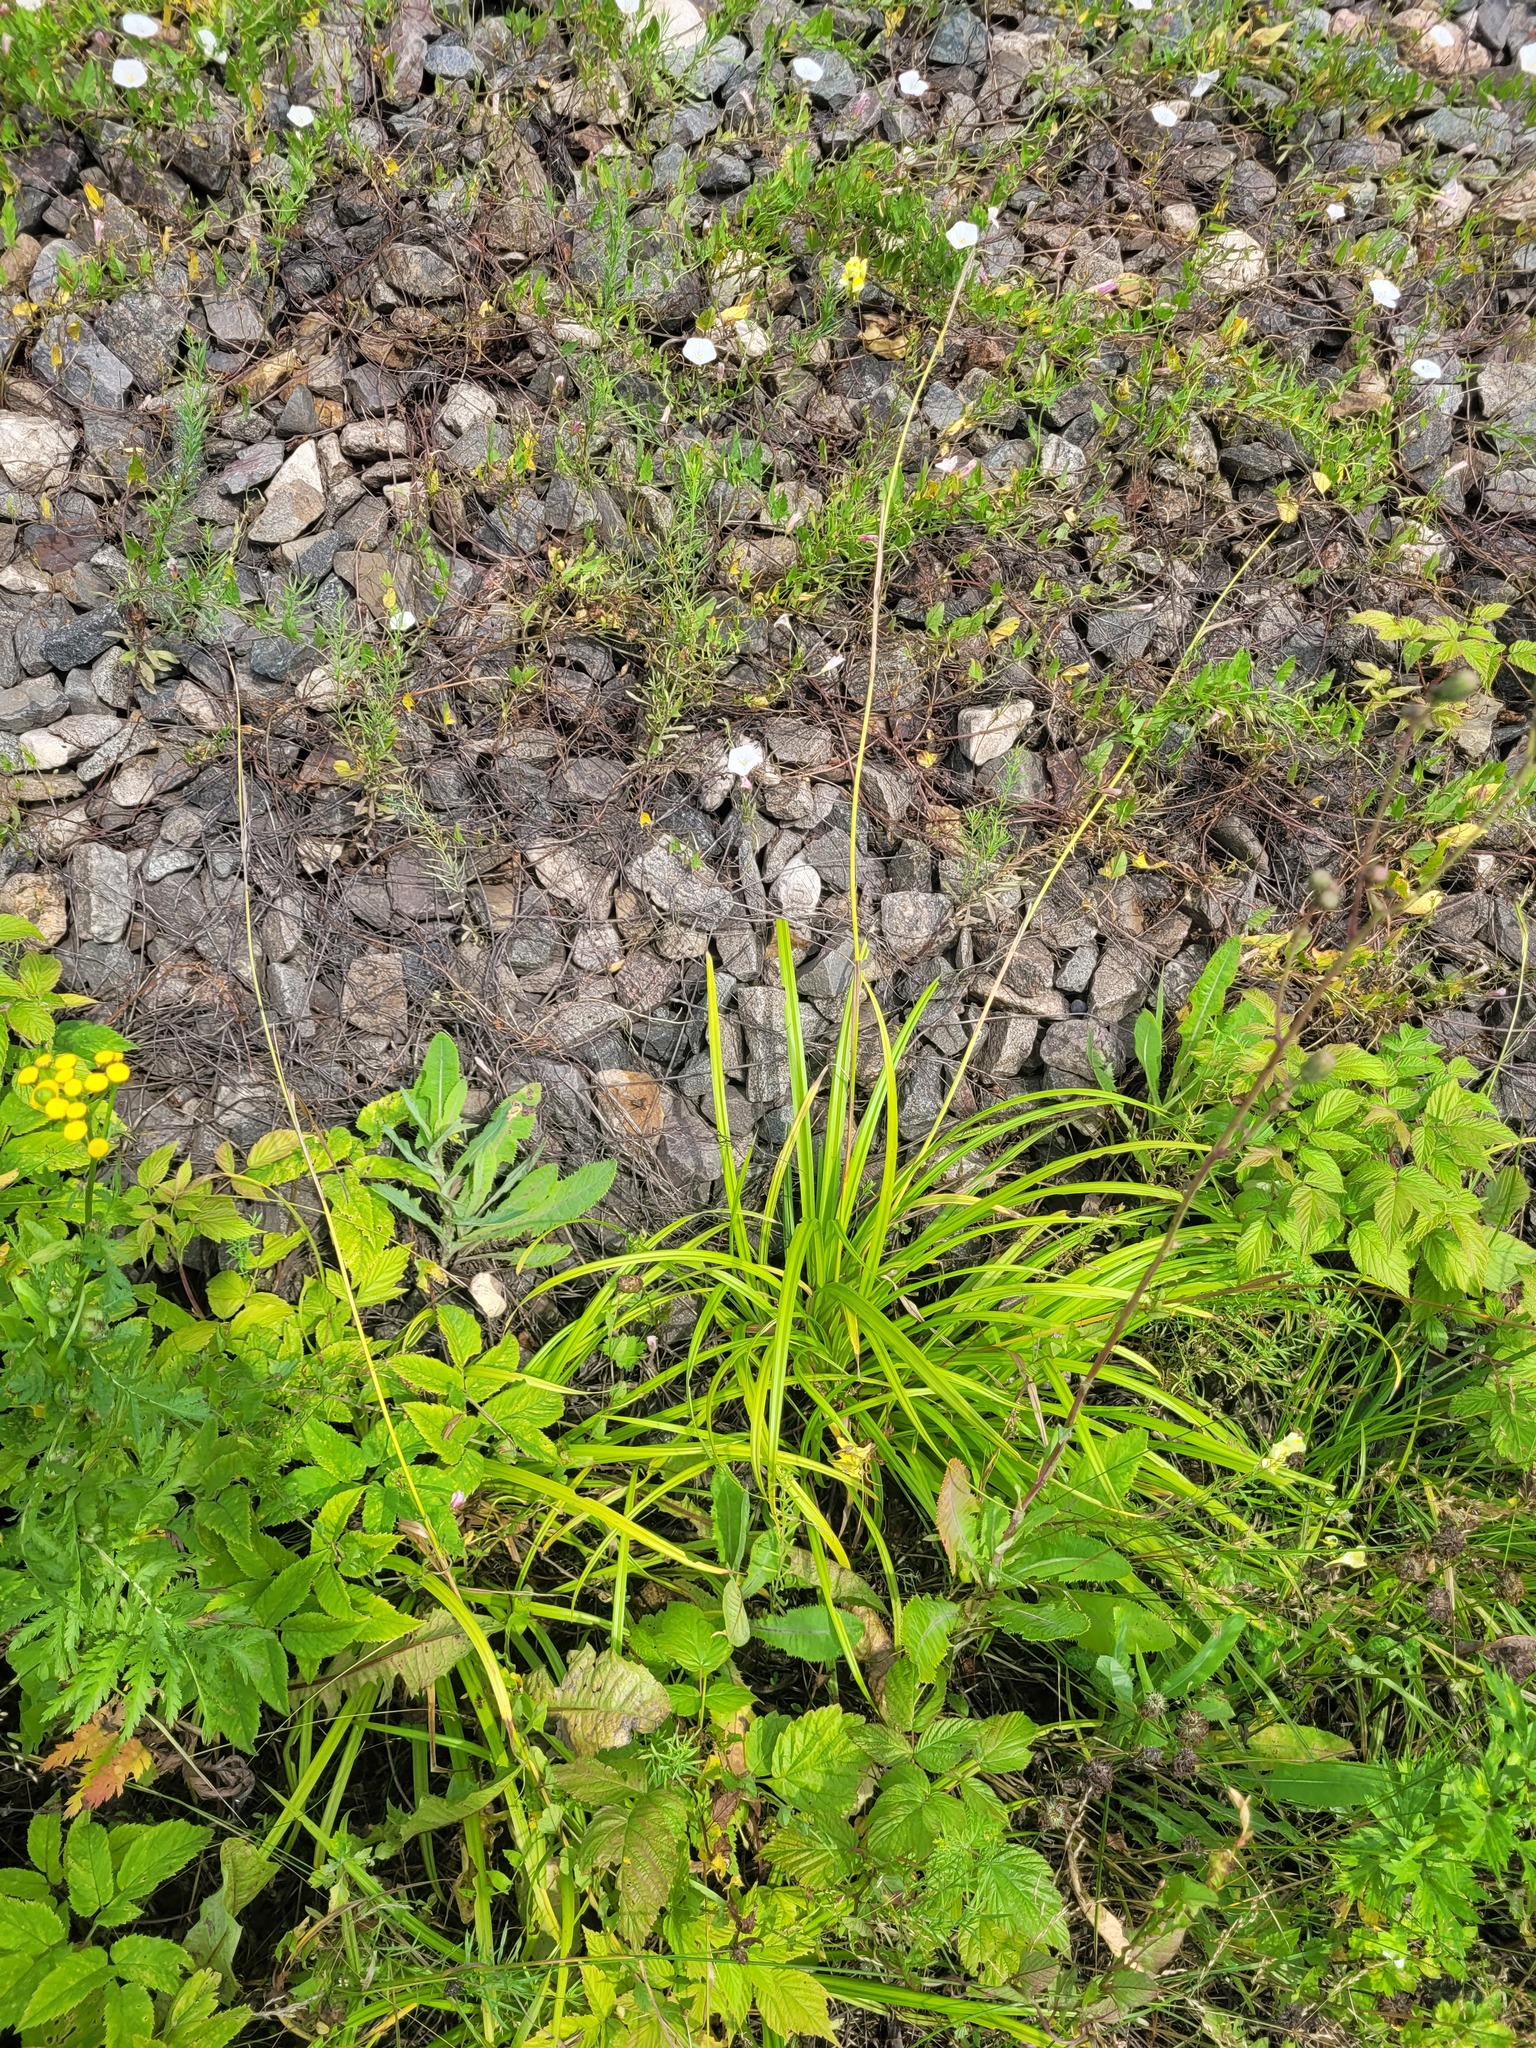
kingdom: Plantae
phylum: Tracheophyta
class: Liliopsida
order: Poales
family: Cyperaceae
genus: Carex
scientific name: Carex sylvatica
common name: Wood-sedge
